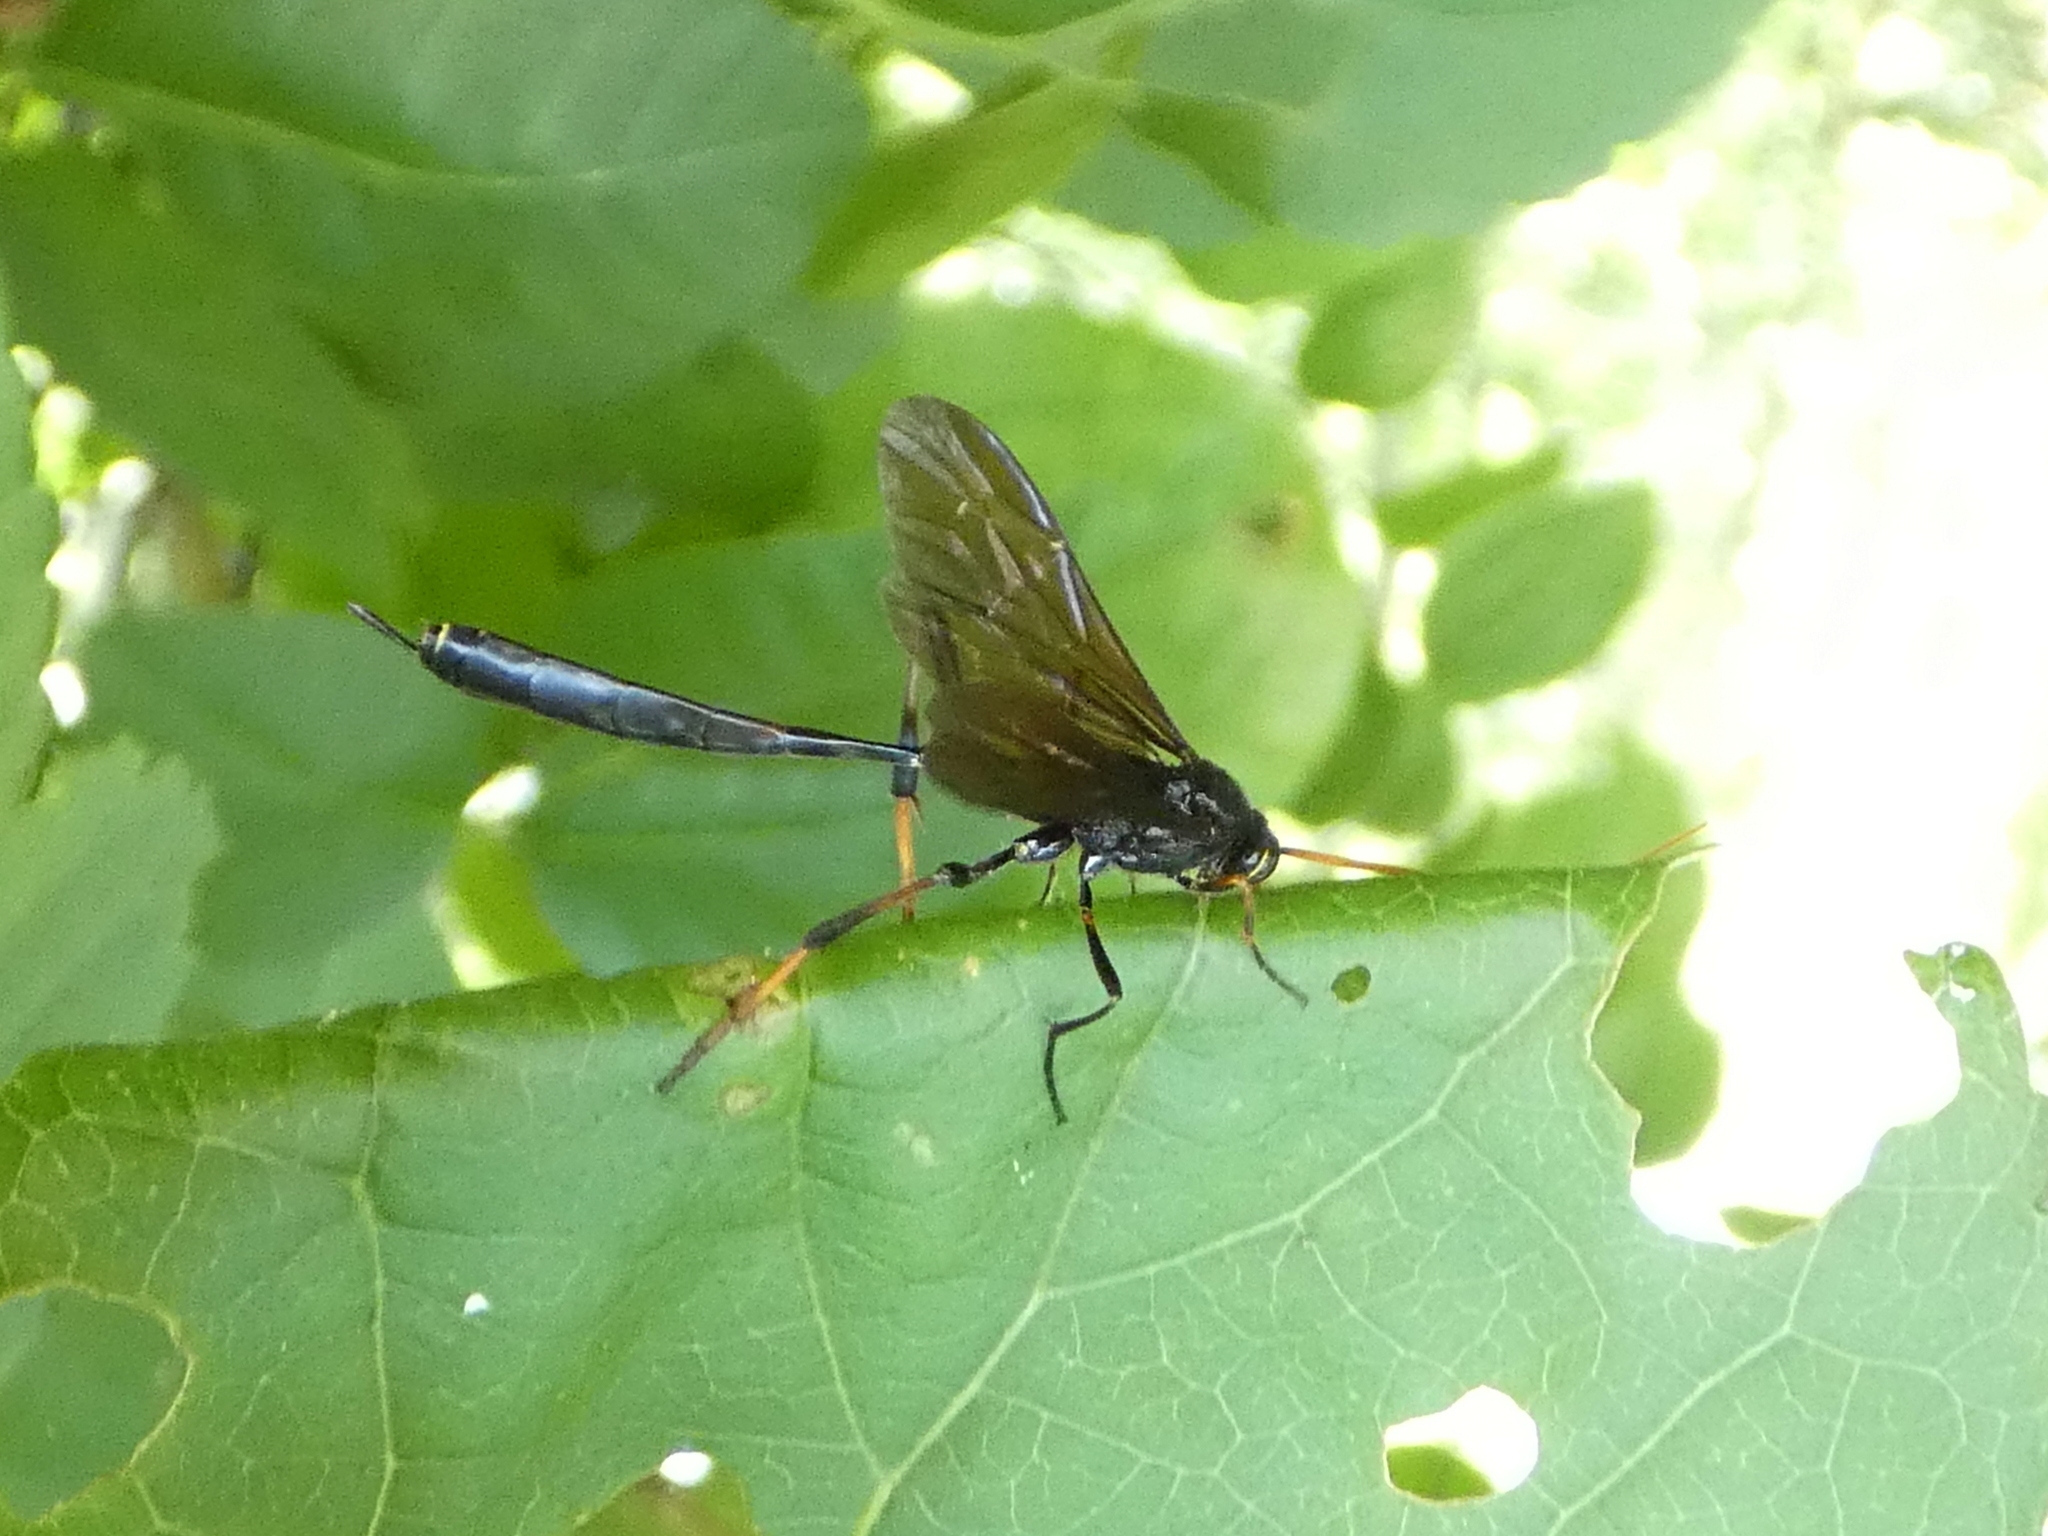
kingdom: Animalia
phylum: Arthropoda
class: Insecta
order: Hymenoptera
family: Ichneumonidae
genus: Therion
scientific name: Therion morio
